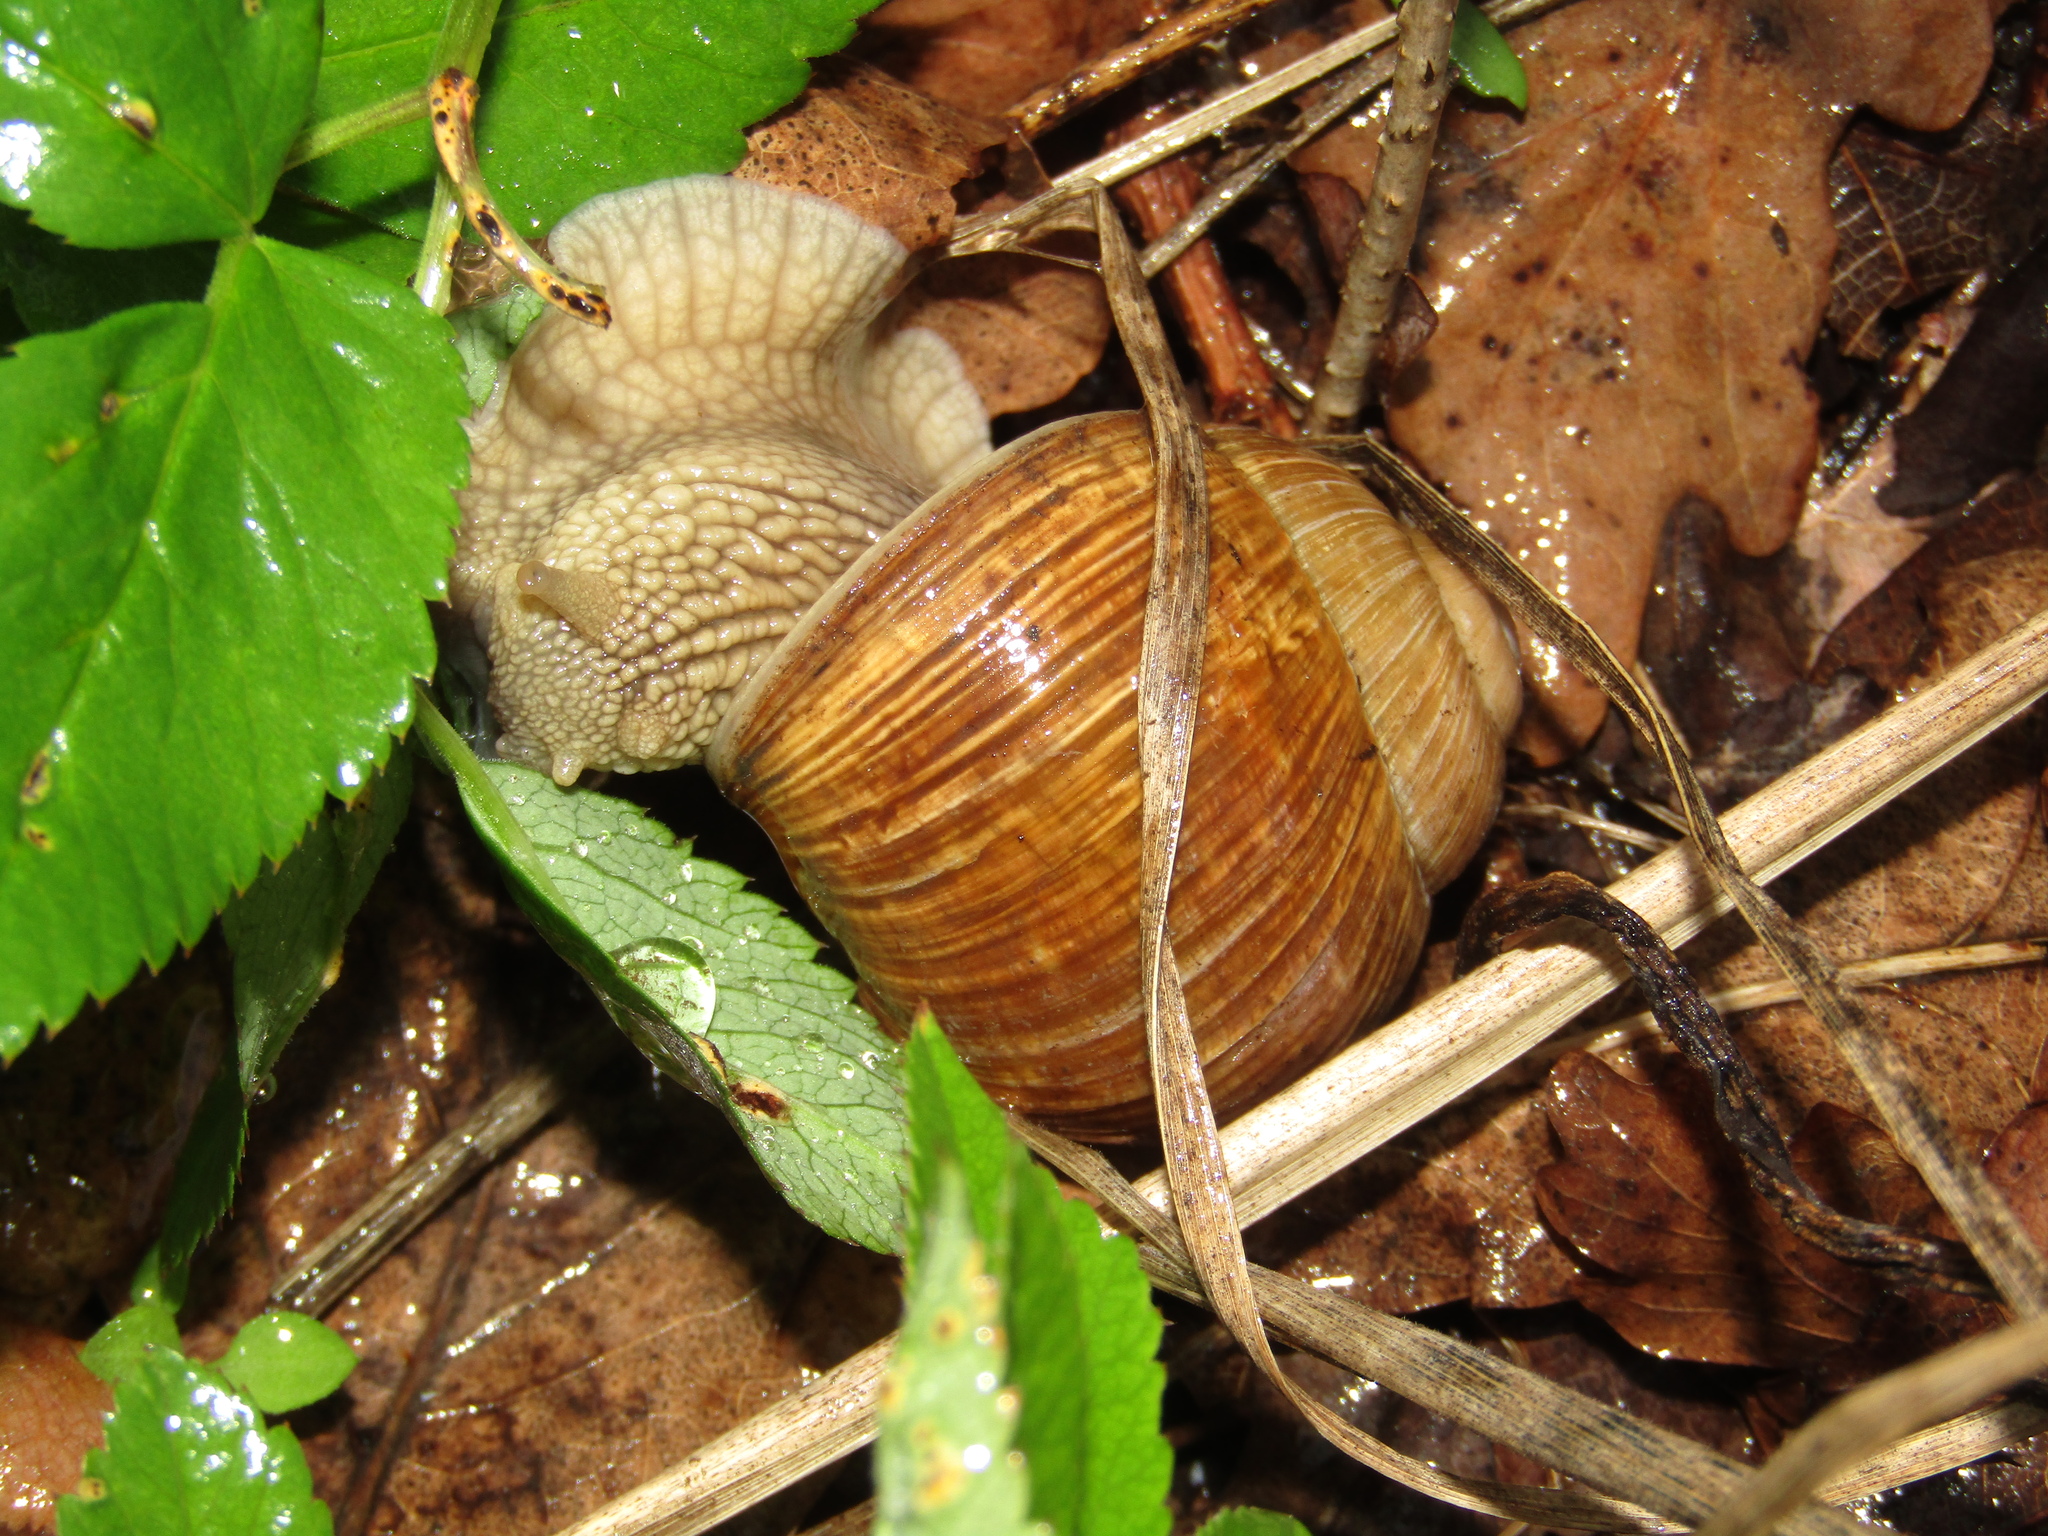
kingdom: Animalia
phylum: Mollusca
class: Gastropoda
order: Stylommatophora
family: Helicidae
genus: Helix
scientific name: Helix pomatia
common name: Roman snail
